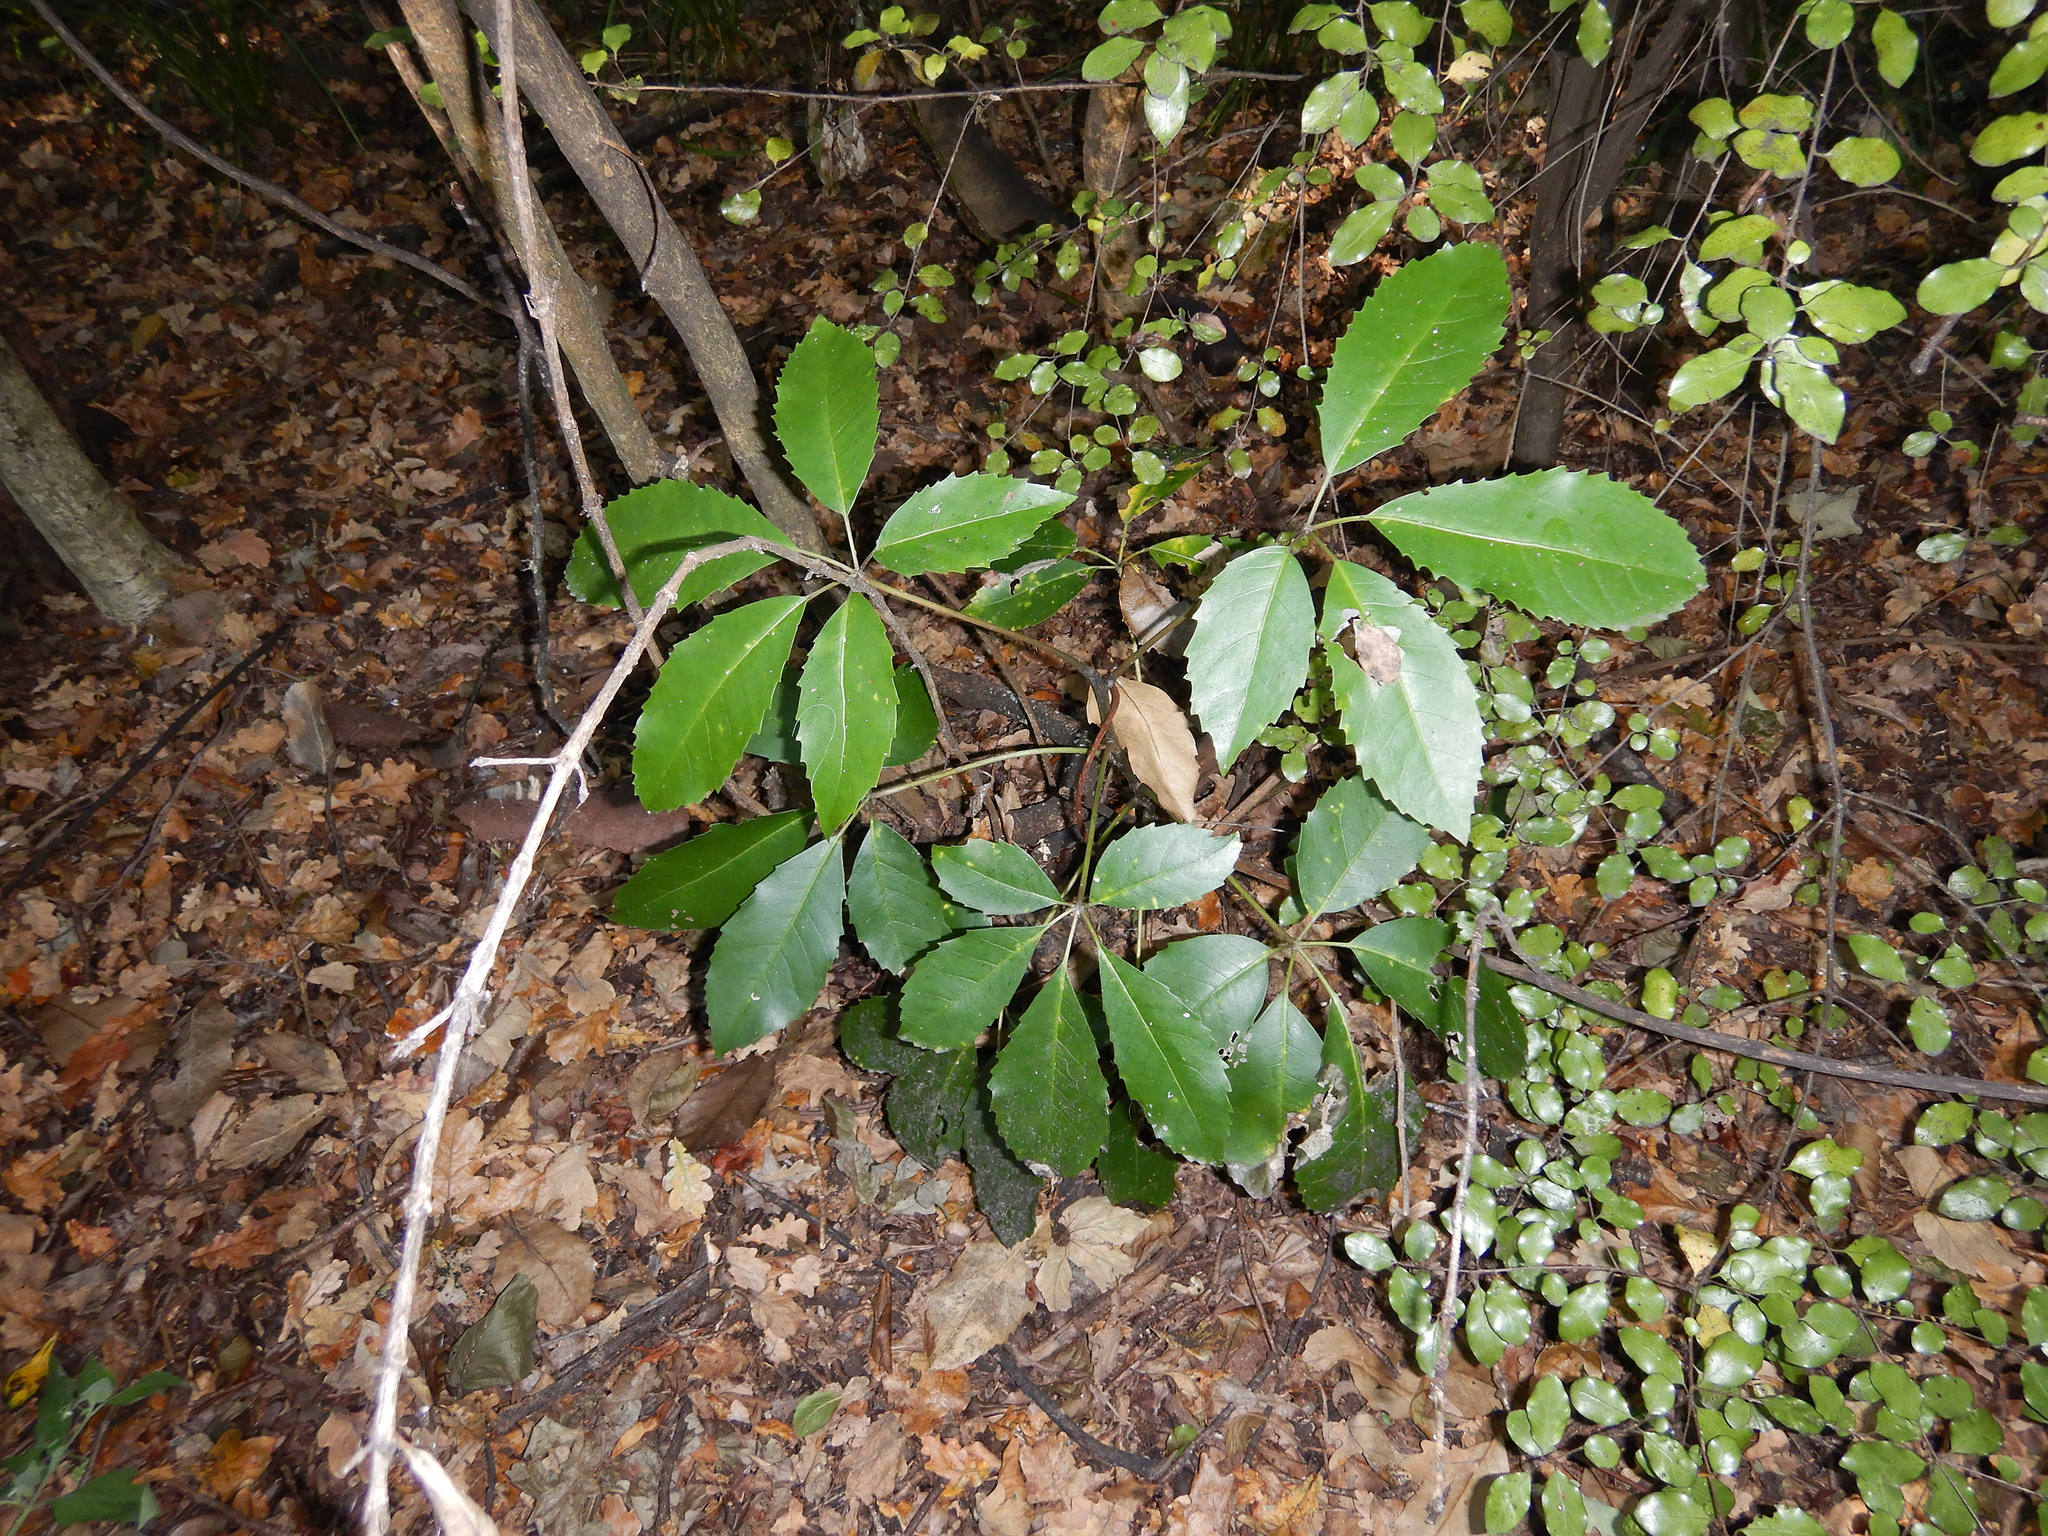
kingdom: Plantae
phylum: Tracheophyta
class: Magnoliopsida
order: Apiales
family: Araliaceae
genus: Neopanax
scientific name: Neopanax arboreus
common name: Five-fingers
